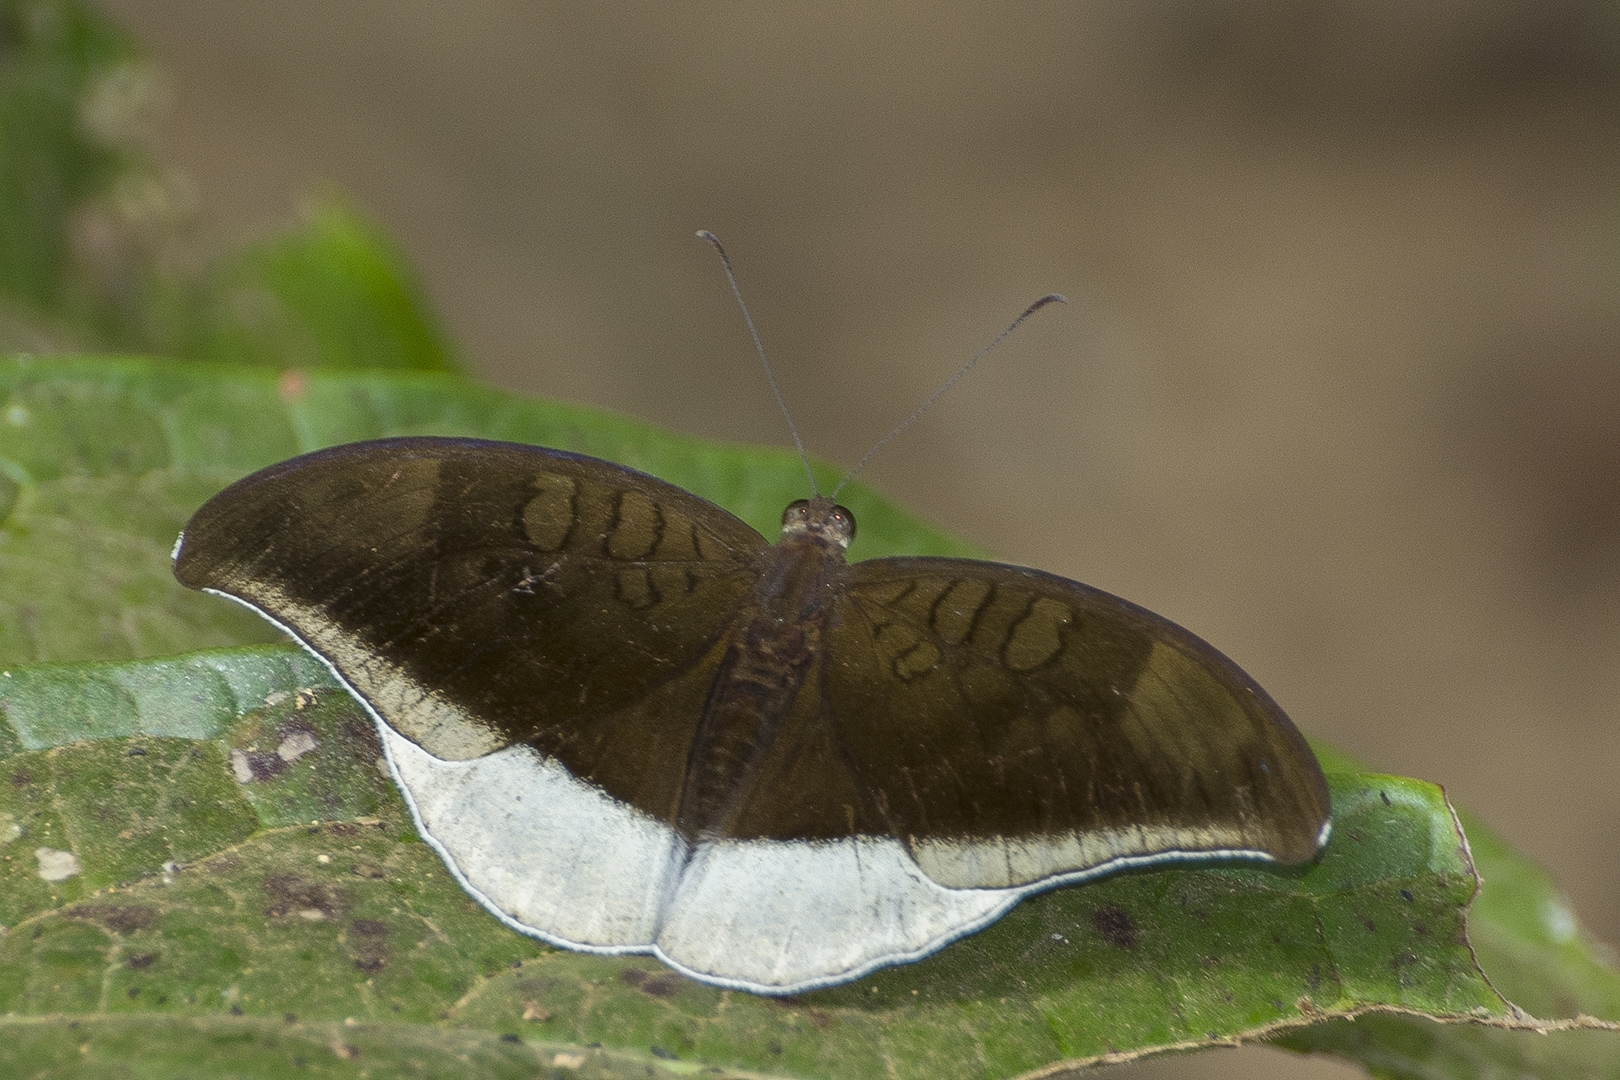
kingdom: Animalia
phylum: Arthropoda
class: Insecta
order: Lepidoptera
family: Nymphalidae
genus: Tanaecia
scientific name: Tanaecia lepidea
